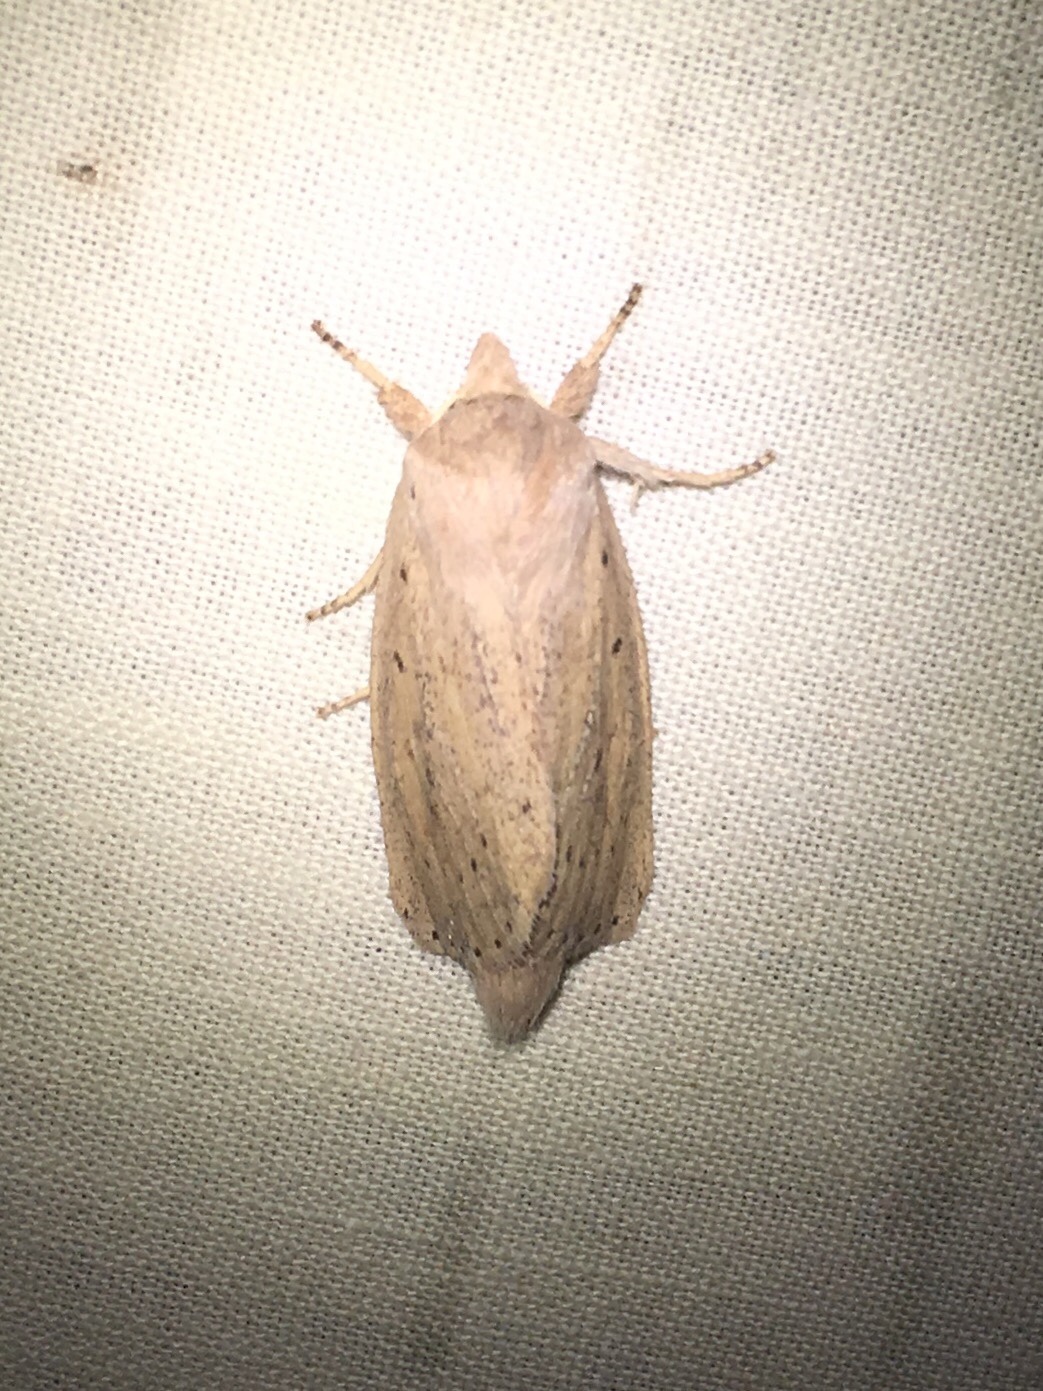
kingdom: Animalia
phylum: Arthropoda
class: Insecta
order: Lepidoptera
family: Noctuidae
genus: Globia
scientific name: Globia oblonga
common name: Oblong sedge borer moth
